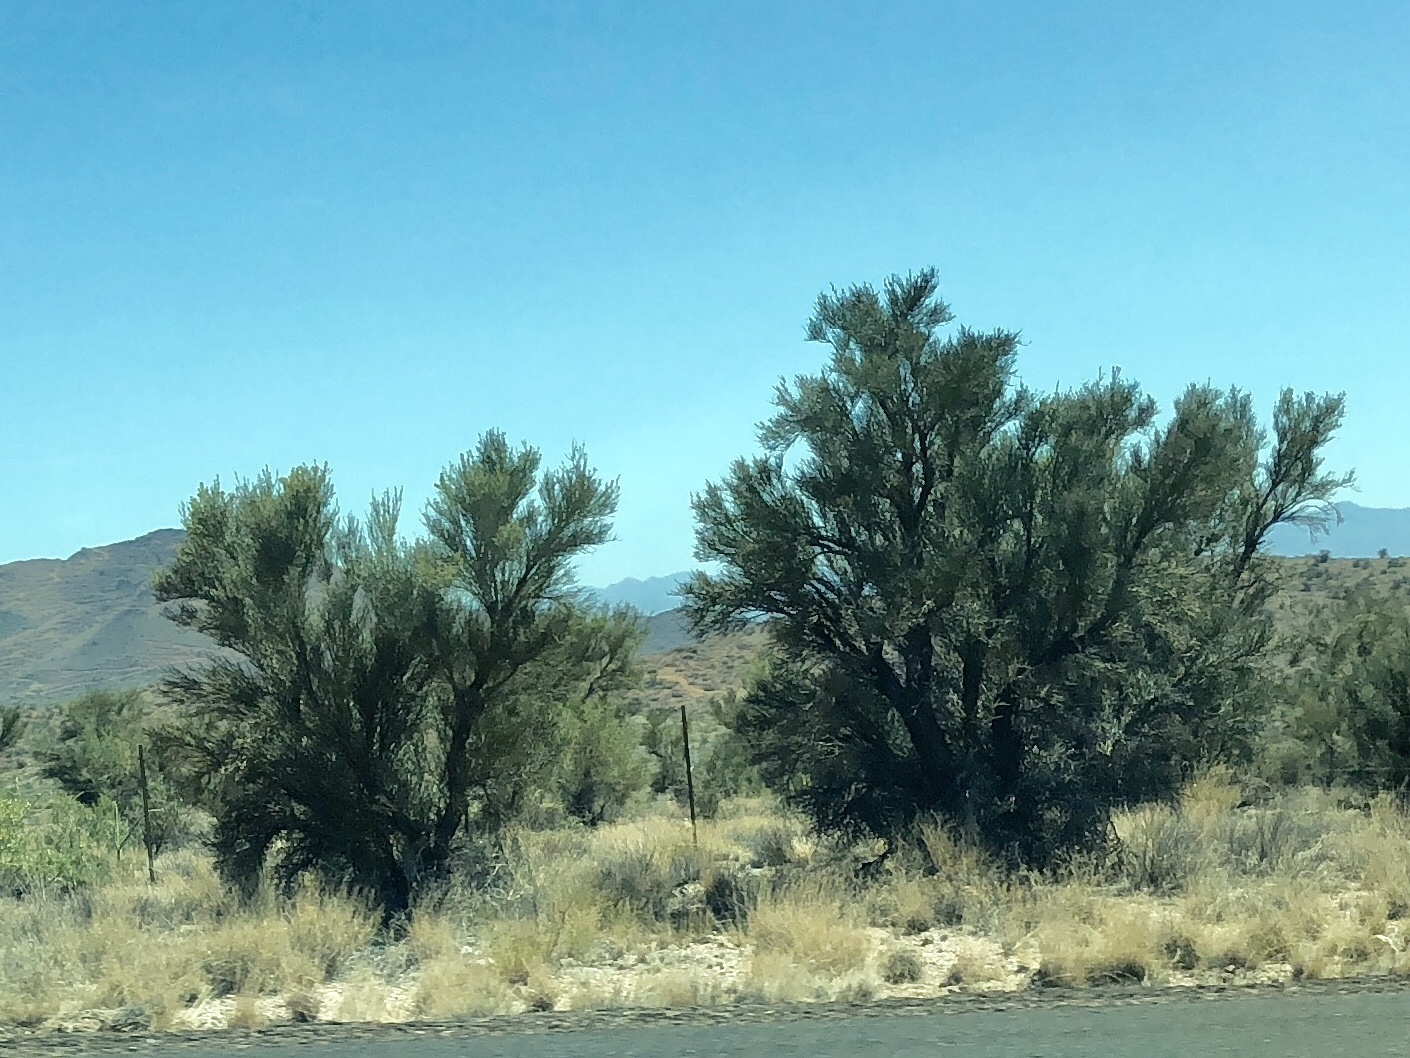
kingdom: Plantae
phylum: Tracheophyta
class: Magnoliopsida
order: Celastrales
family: Celastraceae
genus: Canotia
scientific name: Canotia holacantha
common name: Crucifixion thorns
